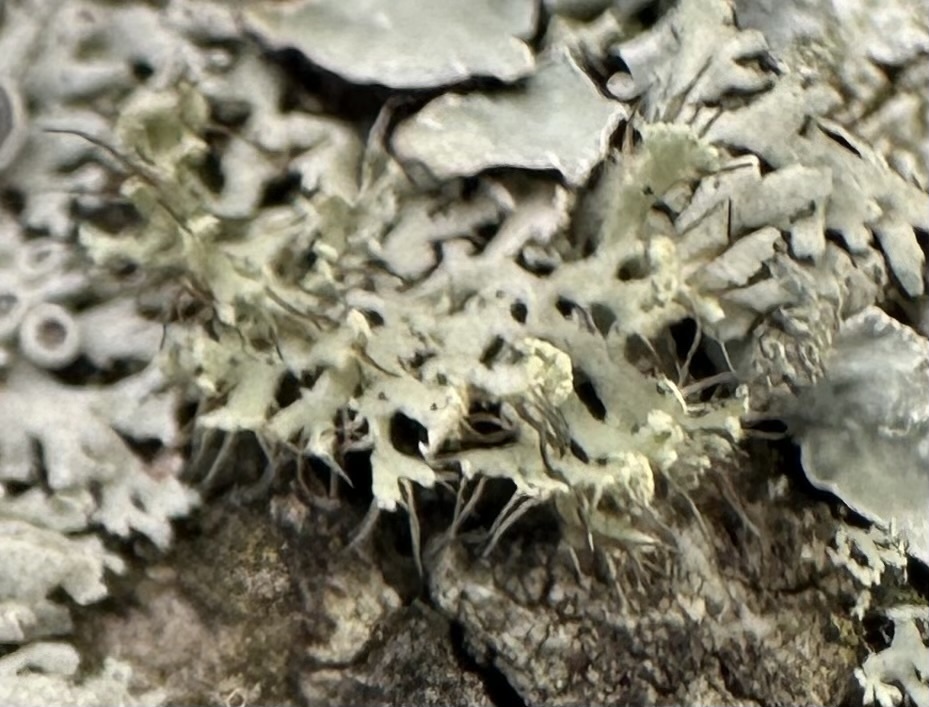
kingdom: Fungi
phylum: Ascomycota
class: Lecanoromycetes
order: Caliciales
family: Physciaceae
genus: Physcia
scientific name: Physcia tenella
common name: Fringed rosette lichen
